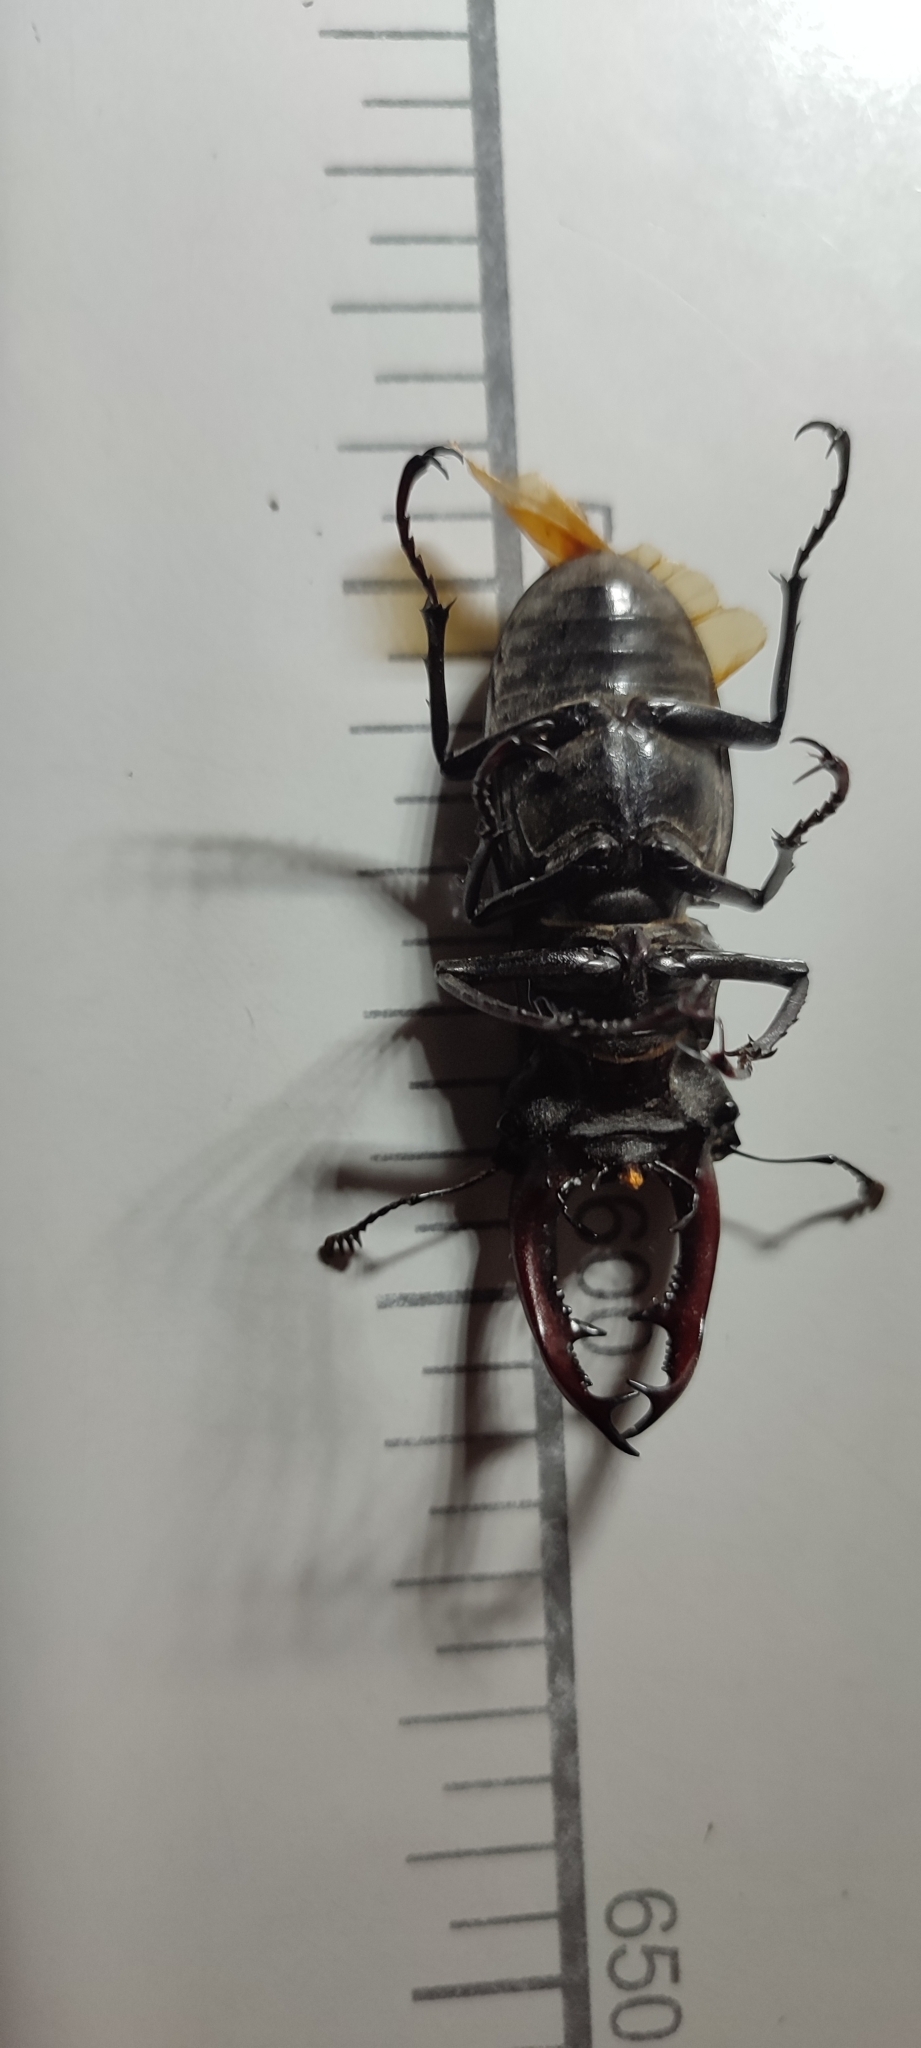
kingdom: Animalia
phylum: Arthropoda
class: Insecta
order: Coleoptera
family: Lucanidae
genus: Lucanus
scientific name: Lucanus cervus
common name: Stag beetle
